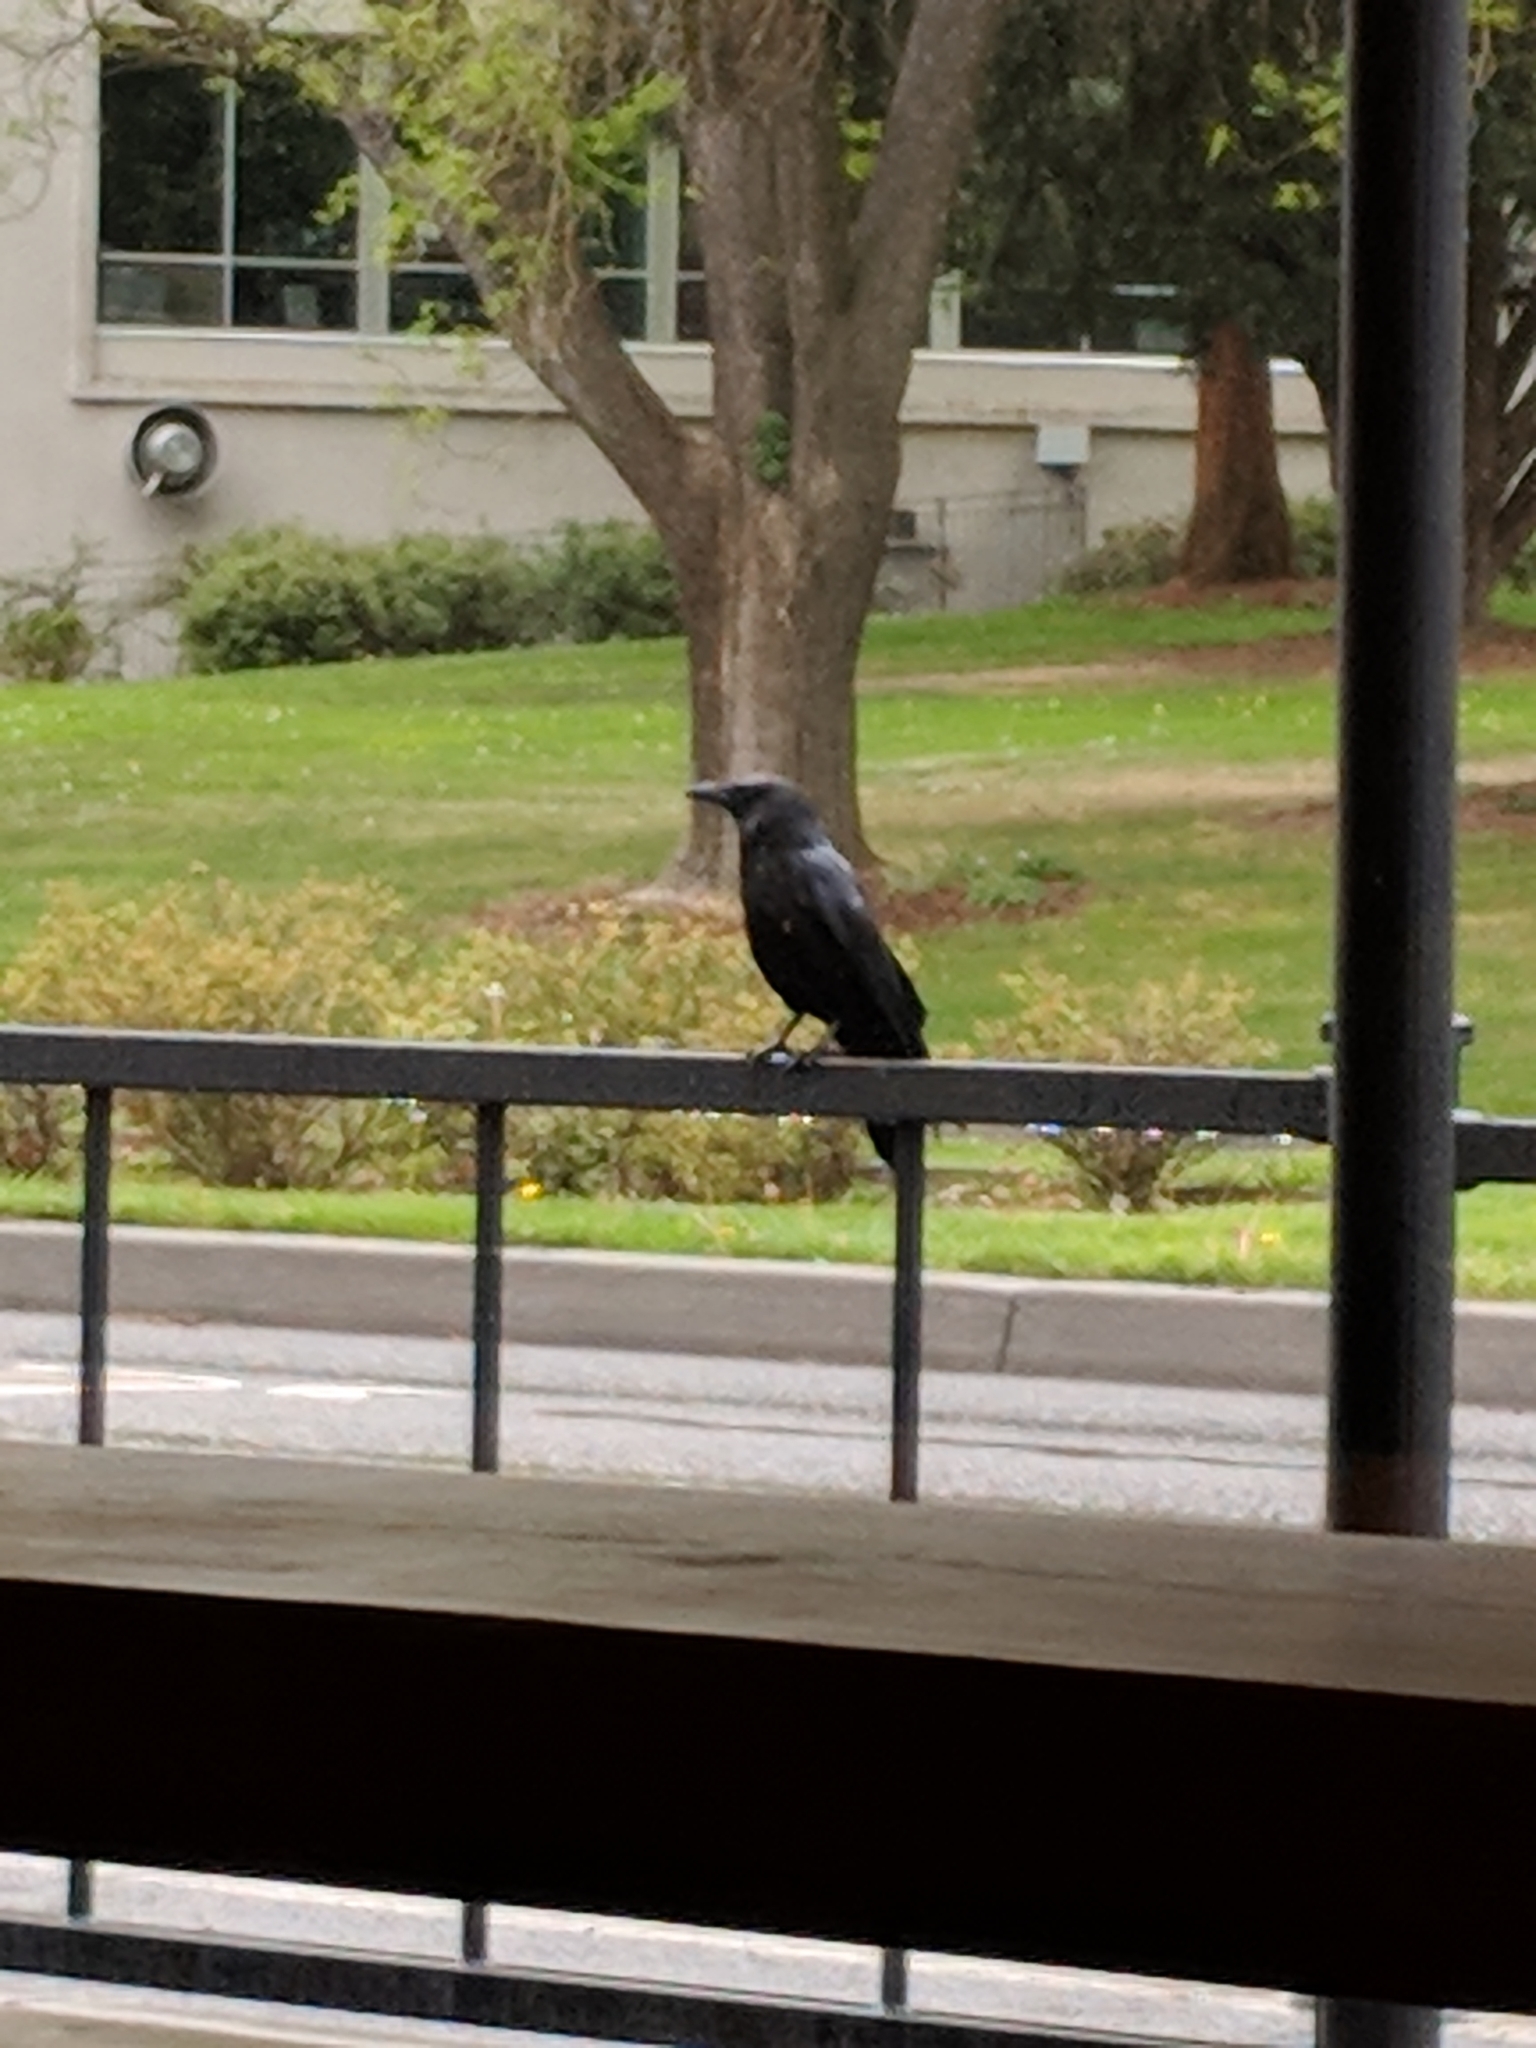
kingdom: Animalia
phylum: Chordata
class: Aves
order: Passeriformes
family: Corvidae
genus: Corvus
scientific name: Corvus brachyrhynchos
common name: American crow
